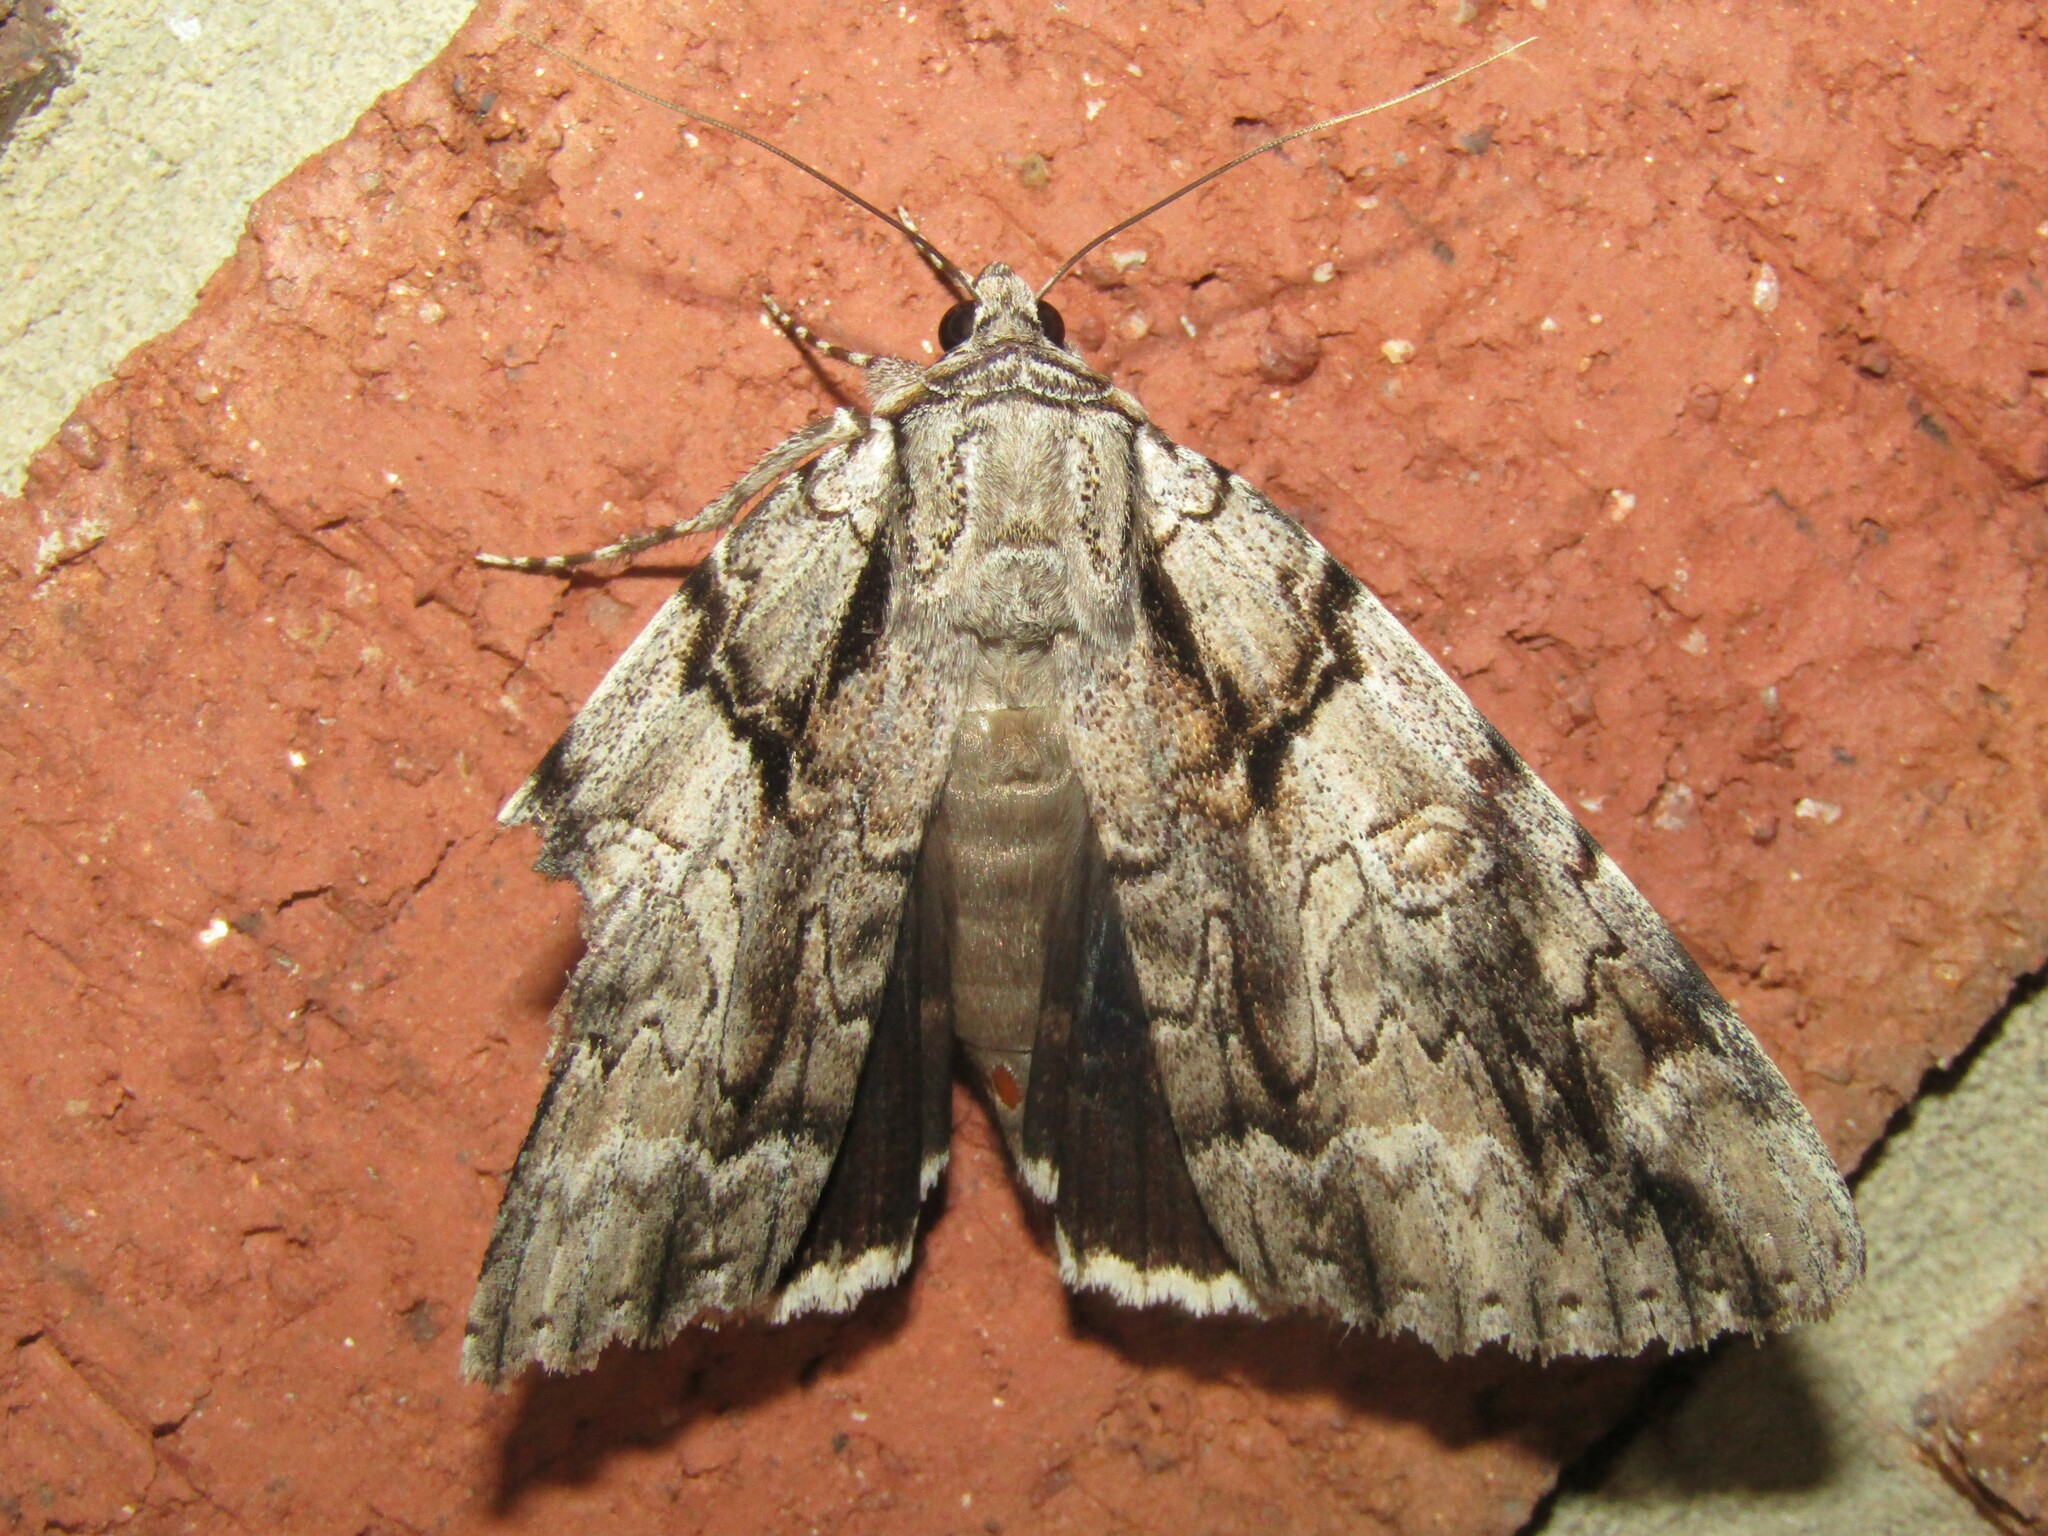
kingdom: Animalia
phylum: Arthropoda
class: Insecta
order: Lepidoptera
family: Erebidae
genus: Catocala
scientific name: Catocala vidua
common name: The widow
